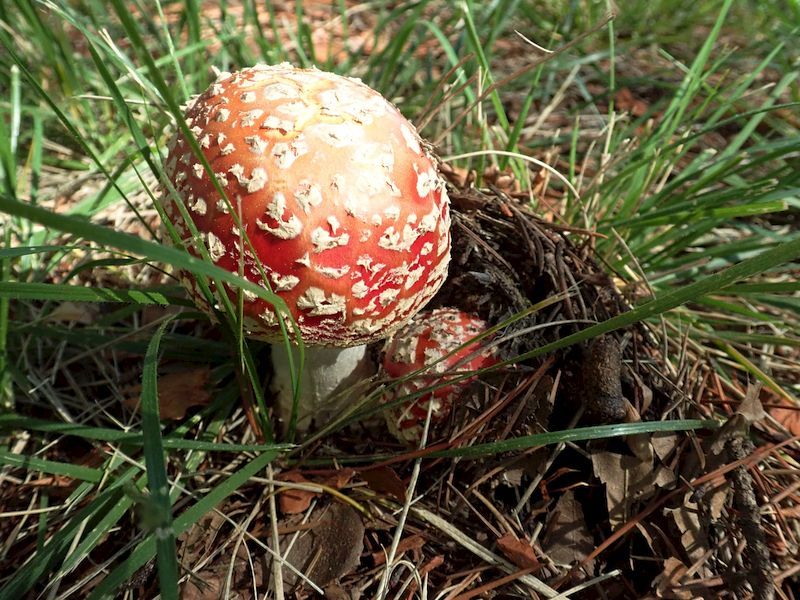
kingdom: Fungi
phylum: Basidiomycota
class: Agaricomycetes
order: Agaricales
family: Amanitaceae
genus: Amanita
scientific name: Amanita muscaria
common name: Fly agaric
